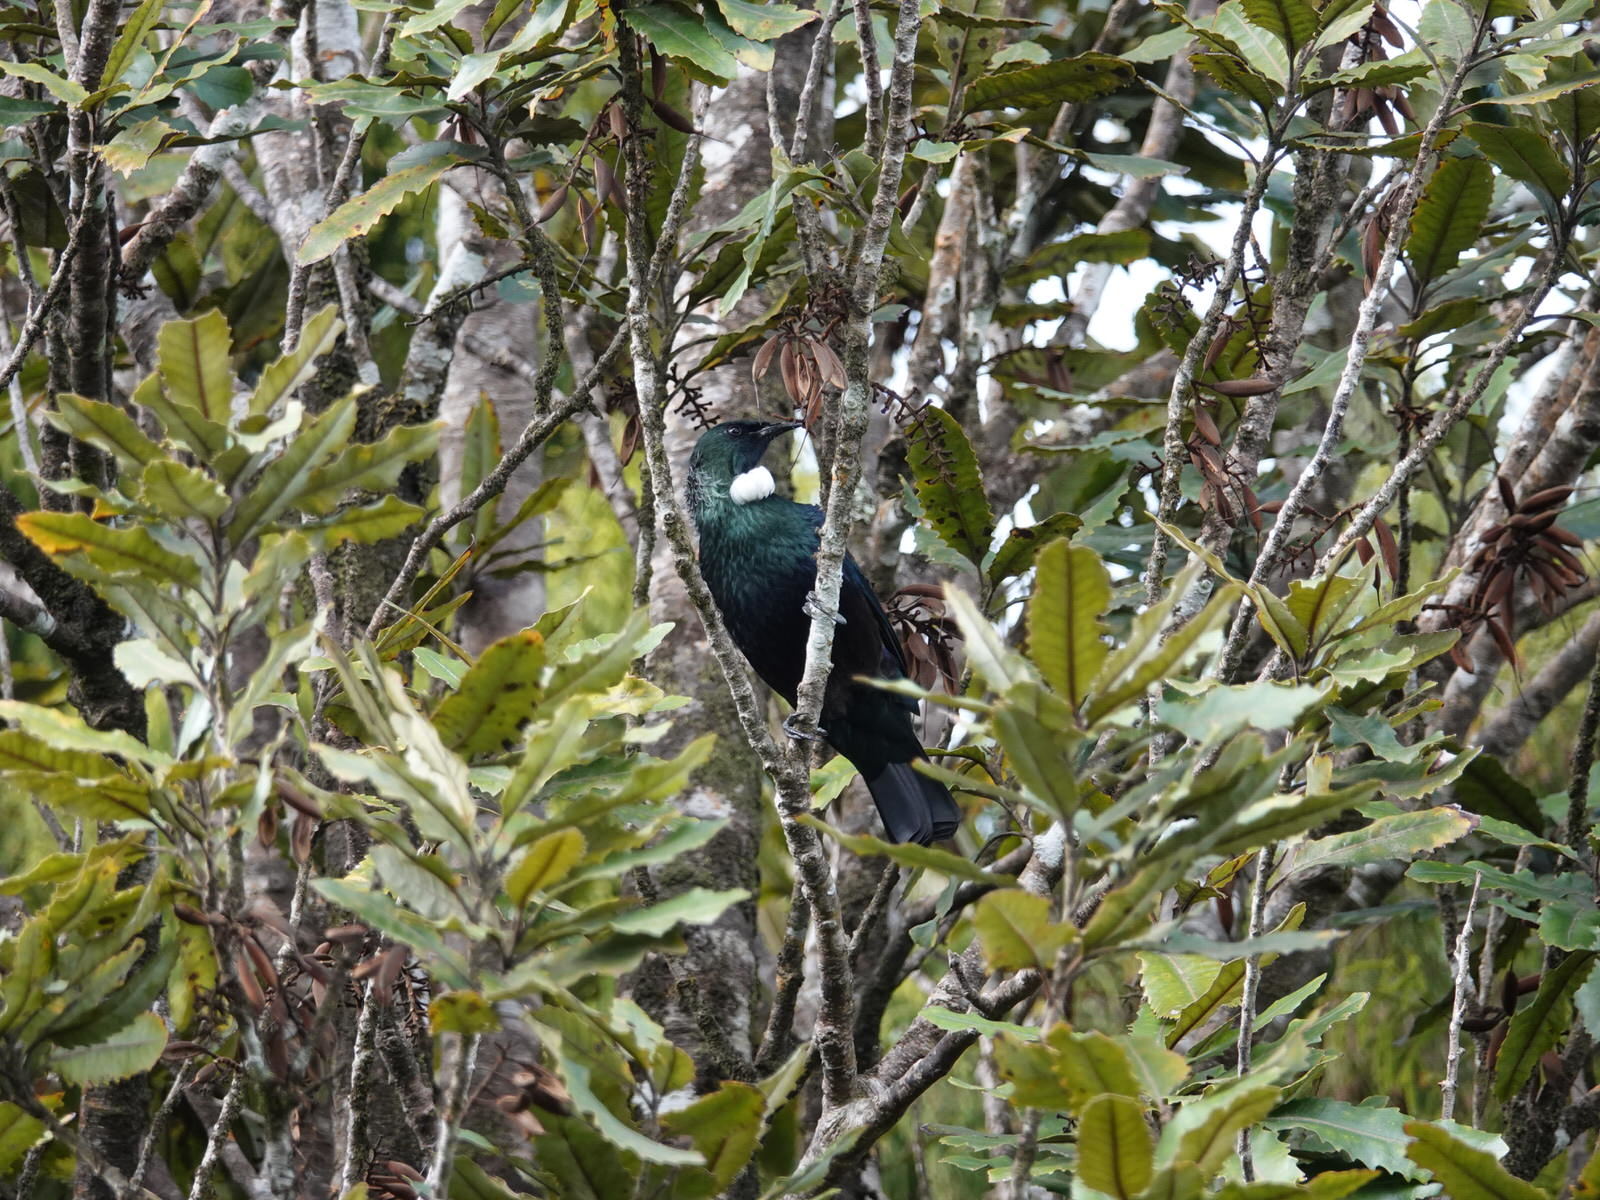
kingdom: Animalia
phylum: Chordata
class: Aves
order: Passeriformes
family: Meliphagidae
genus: Prosthemadera
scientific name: Prosthemadera novaeseelandiae
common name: Tui
